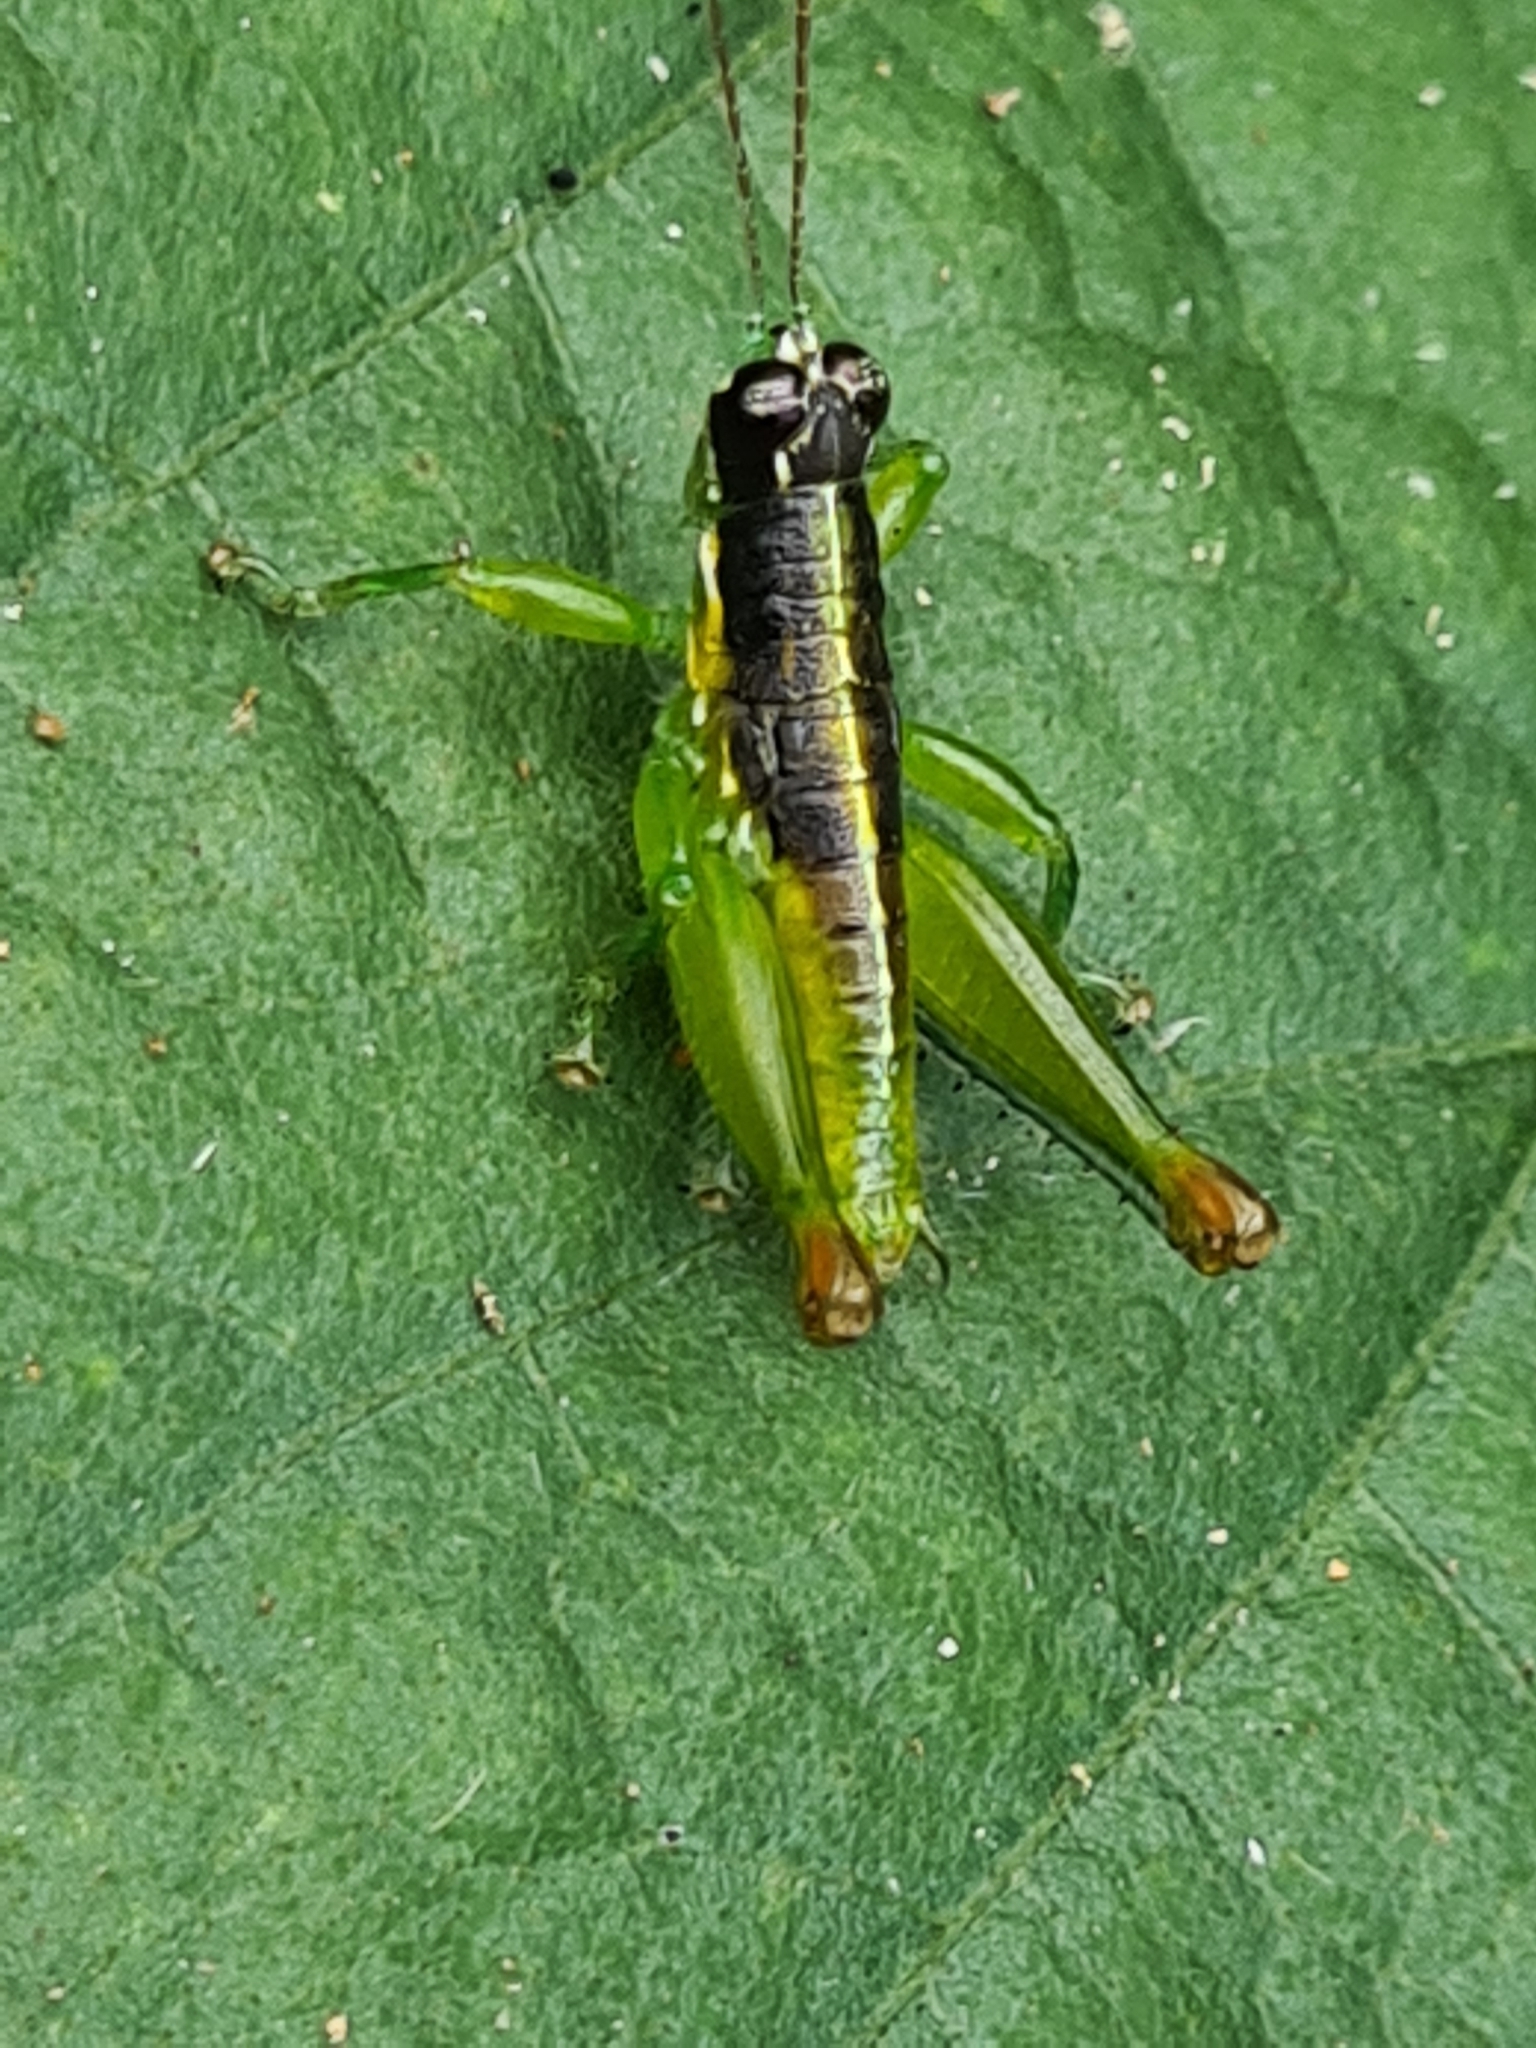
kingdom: Animalia
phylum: Arthropoda
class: Insecta
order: Orthoptera
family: Acrididae
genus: Liebermannacris
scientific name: Liebermannacris dorsualis
